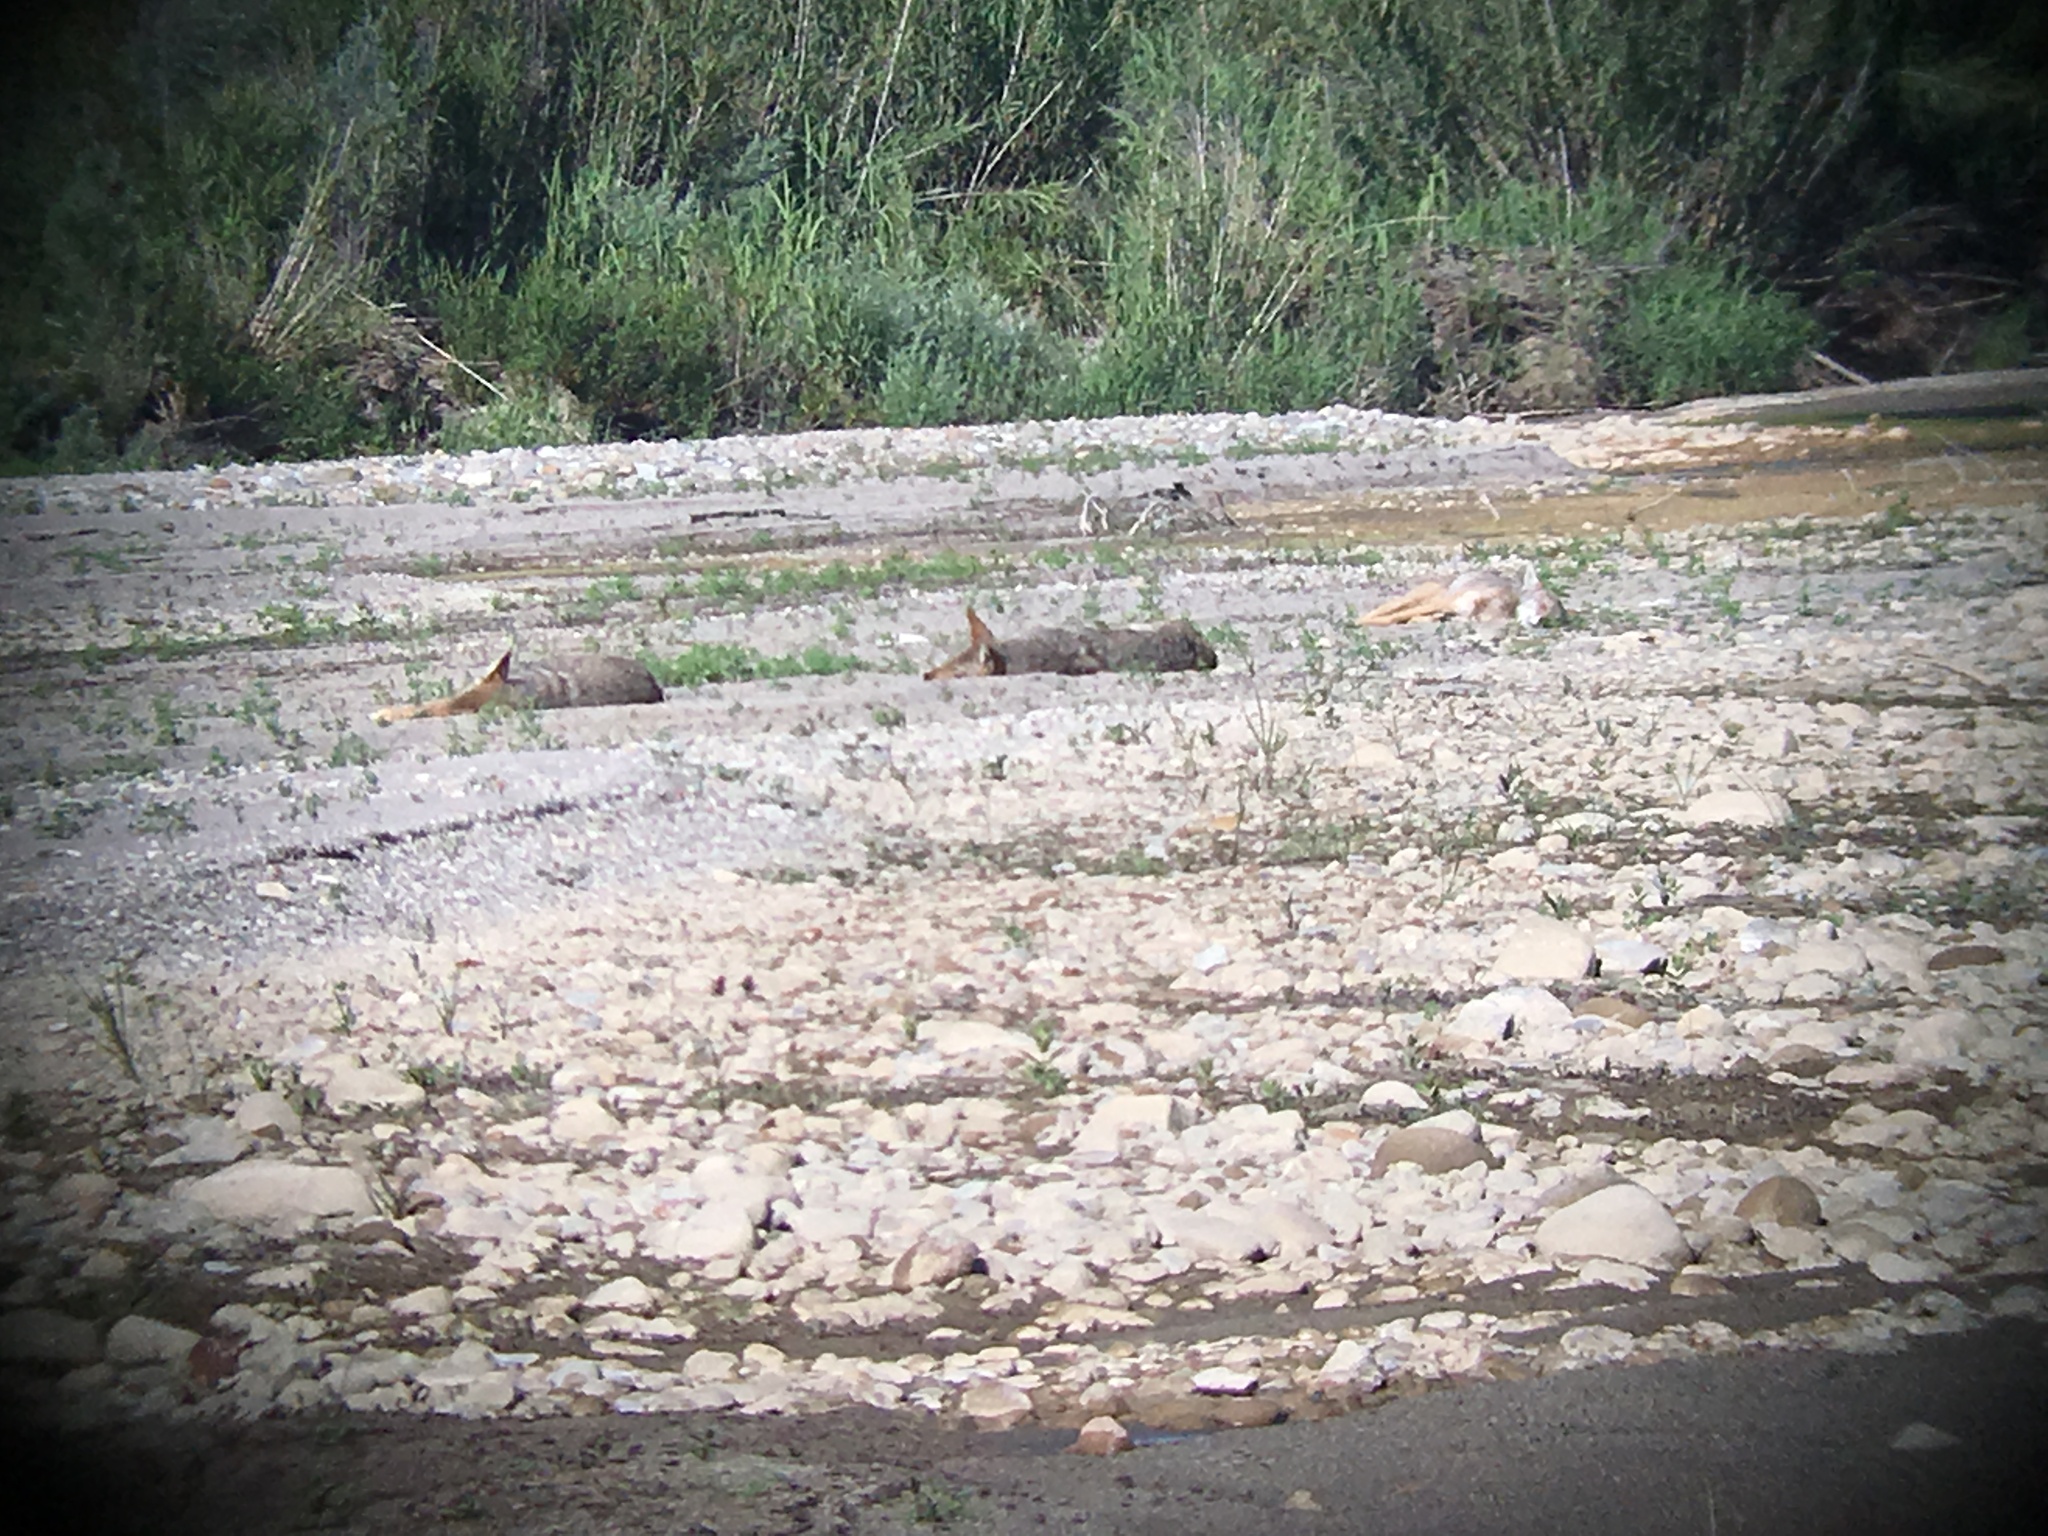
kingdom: Animalia
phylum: Chordata
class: Mammalia
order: Carnivora
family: Canidae
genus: Canis
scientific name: Canis latrans
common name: Coyote
